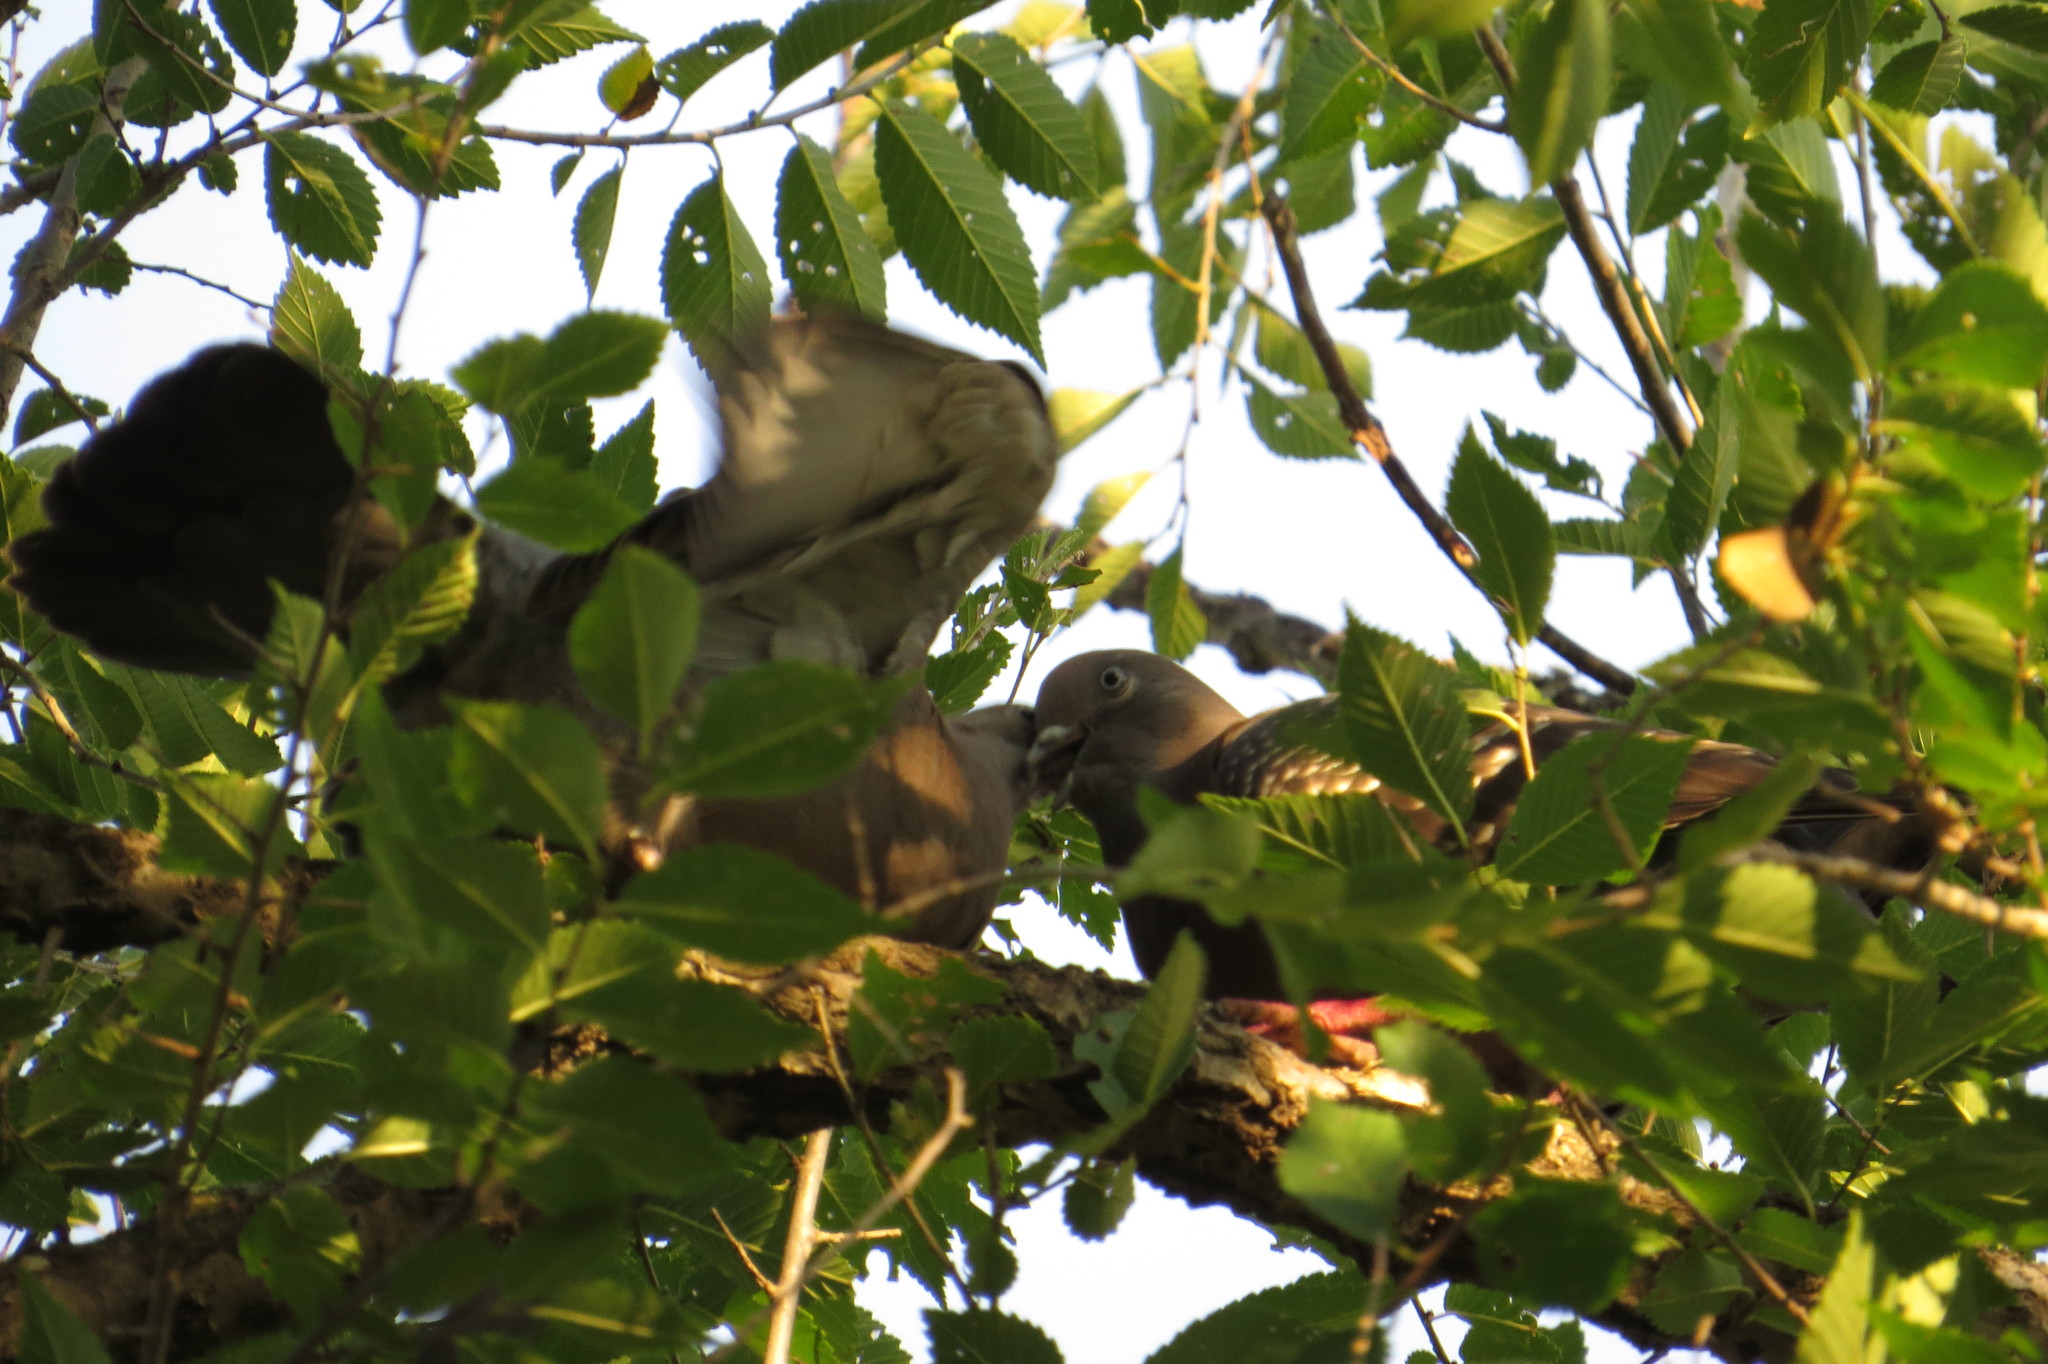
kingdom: Animalia
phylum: Chordata
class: Aves
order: Columbiformes
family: Columbidae
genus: Patagioenas
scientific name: Patagioenas maculosa
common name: Spot-winged pigeon
